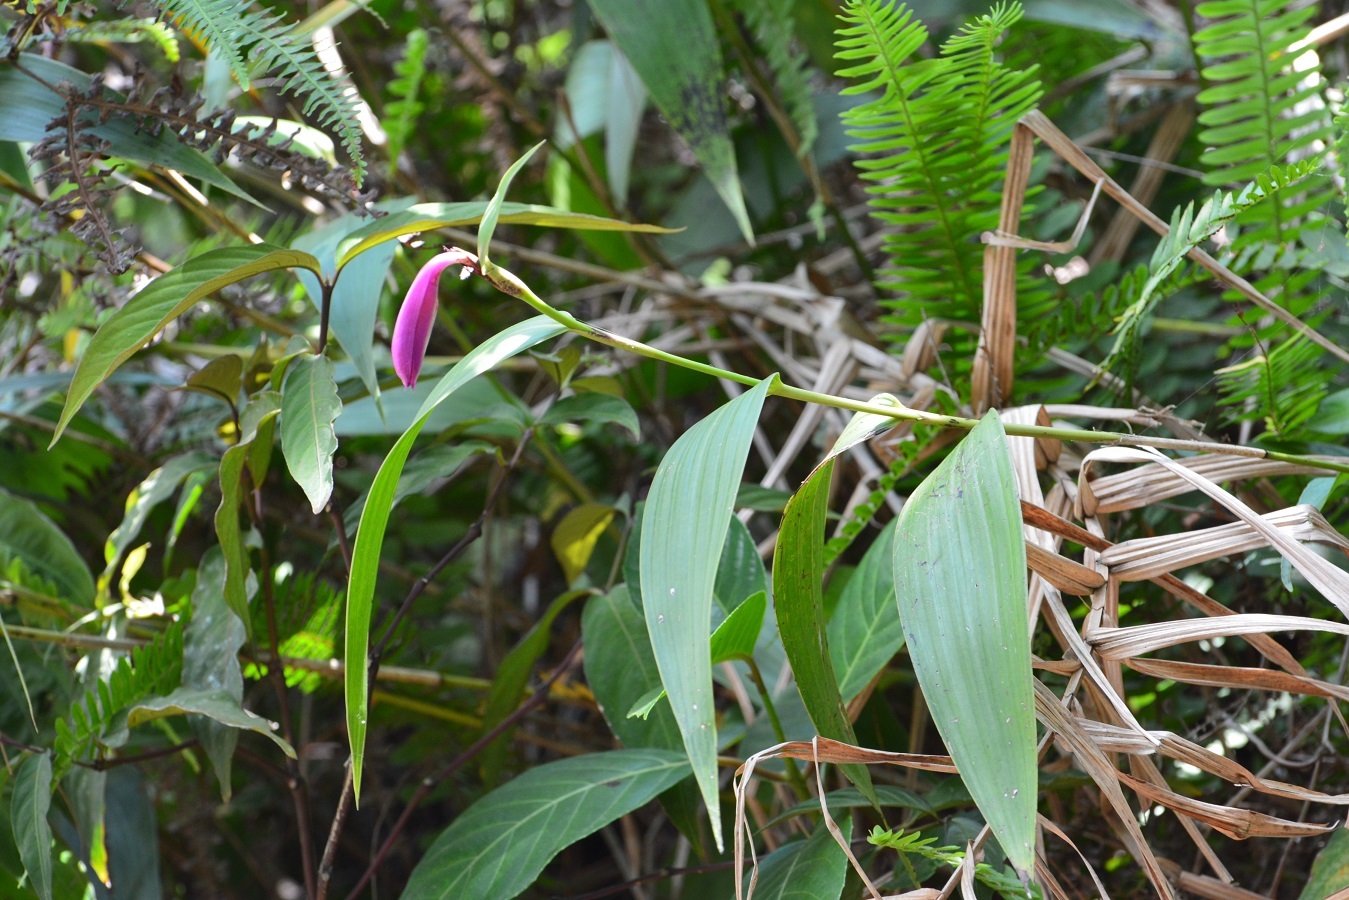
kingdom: Plantae
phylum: Tracheophyta
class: Liliopsida
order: Asparagales
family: Orchidaceae
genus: Sobralia
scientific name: Sobralia macdougallii
